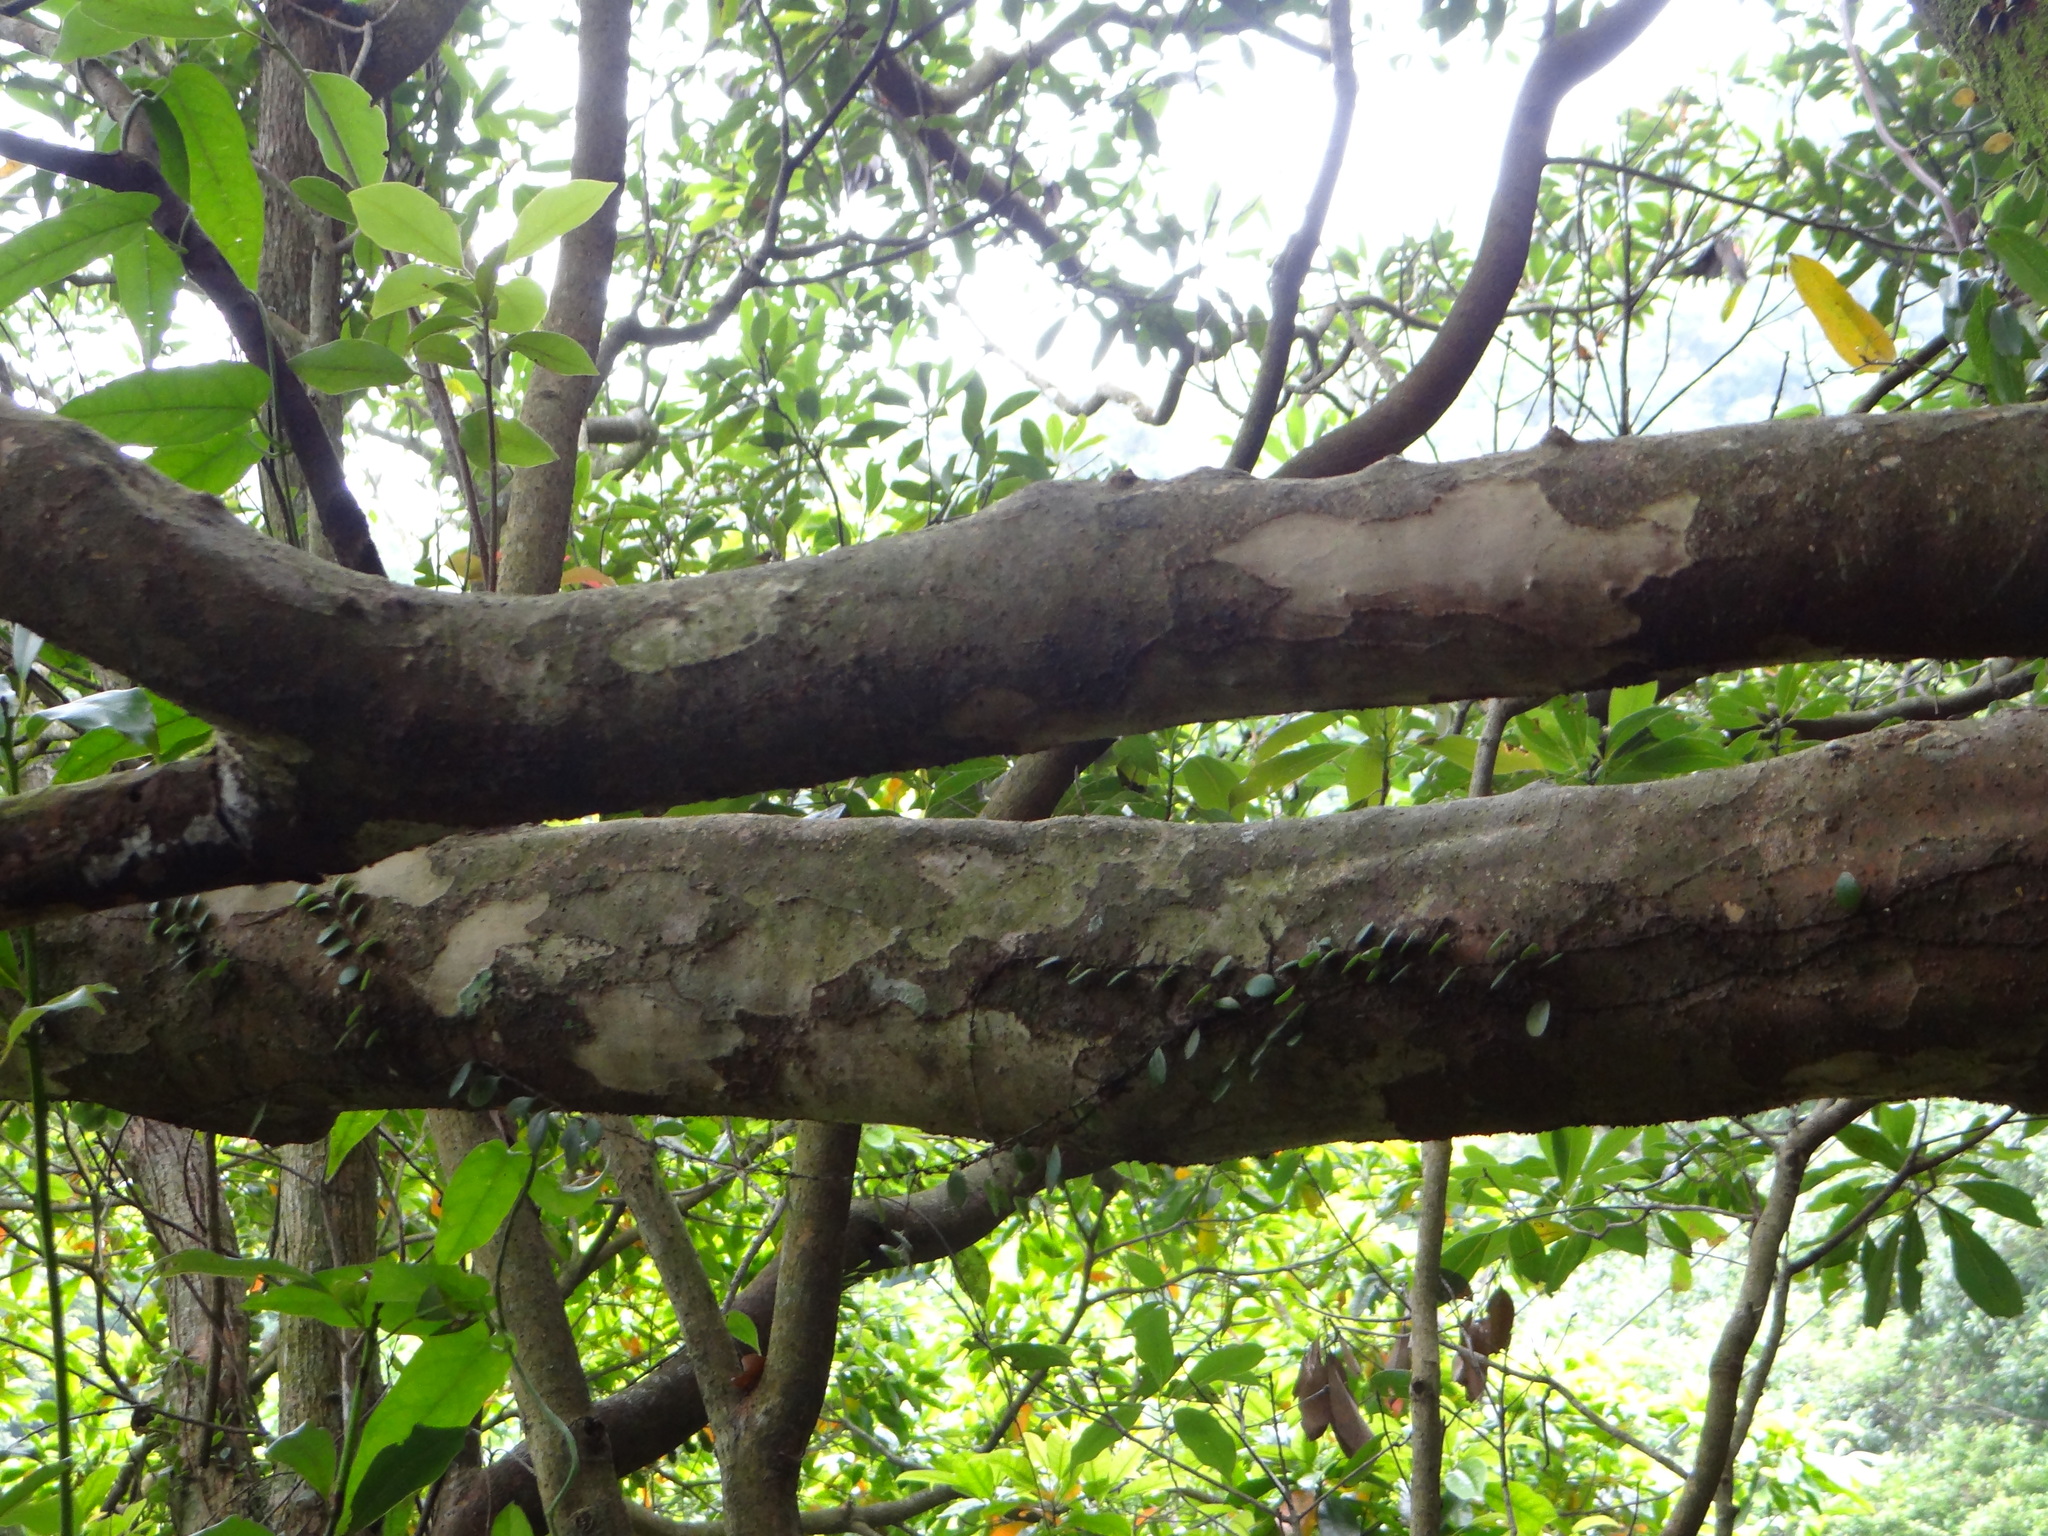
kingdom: Plantae
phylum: Tracheophyta
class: Magnoliopsida
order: Laurales
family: Lauraceae
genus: Litsea
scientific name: Litsea coreana
